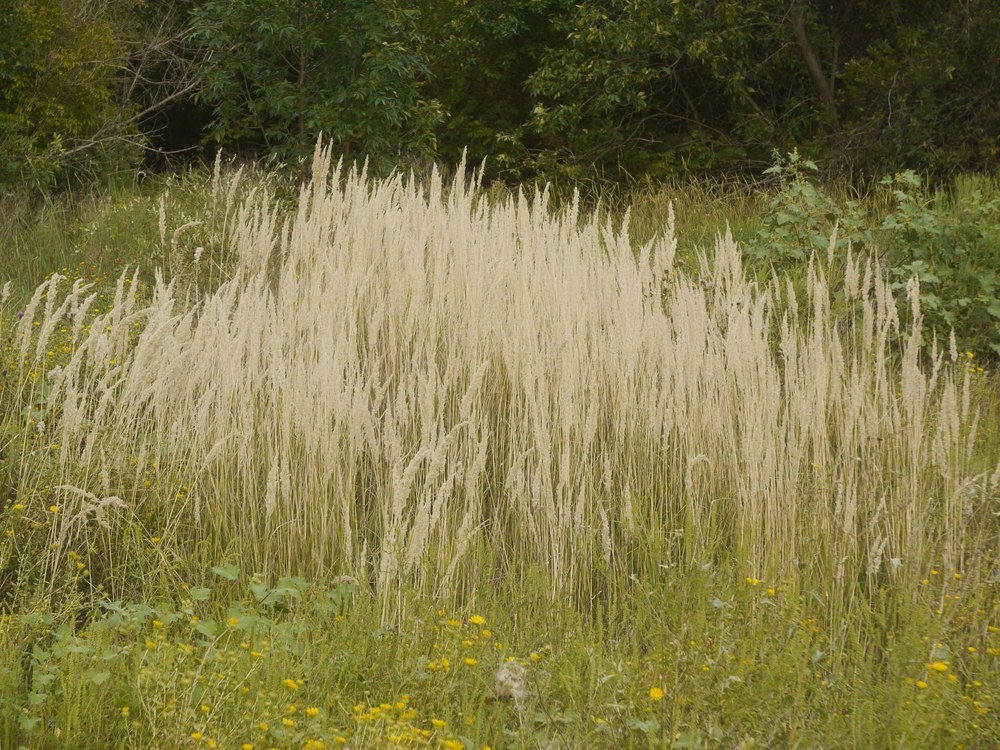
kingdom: Plantae
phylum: Tracheophyta
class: Liliopsida
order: Poales
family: Poaceae
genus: Calamagrostis
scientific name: Calamagrostis epigejos
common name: Wood small-reed
